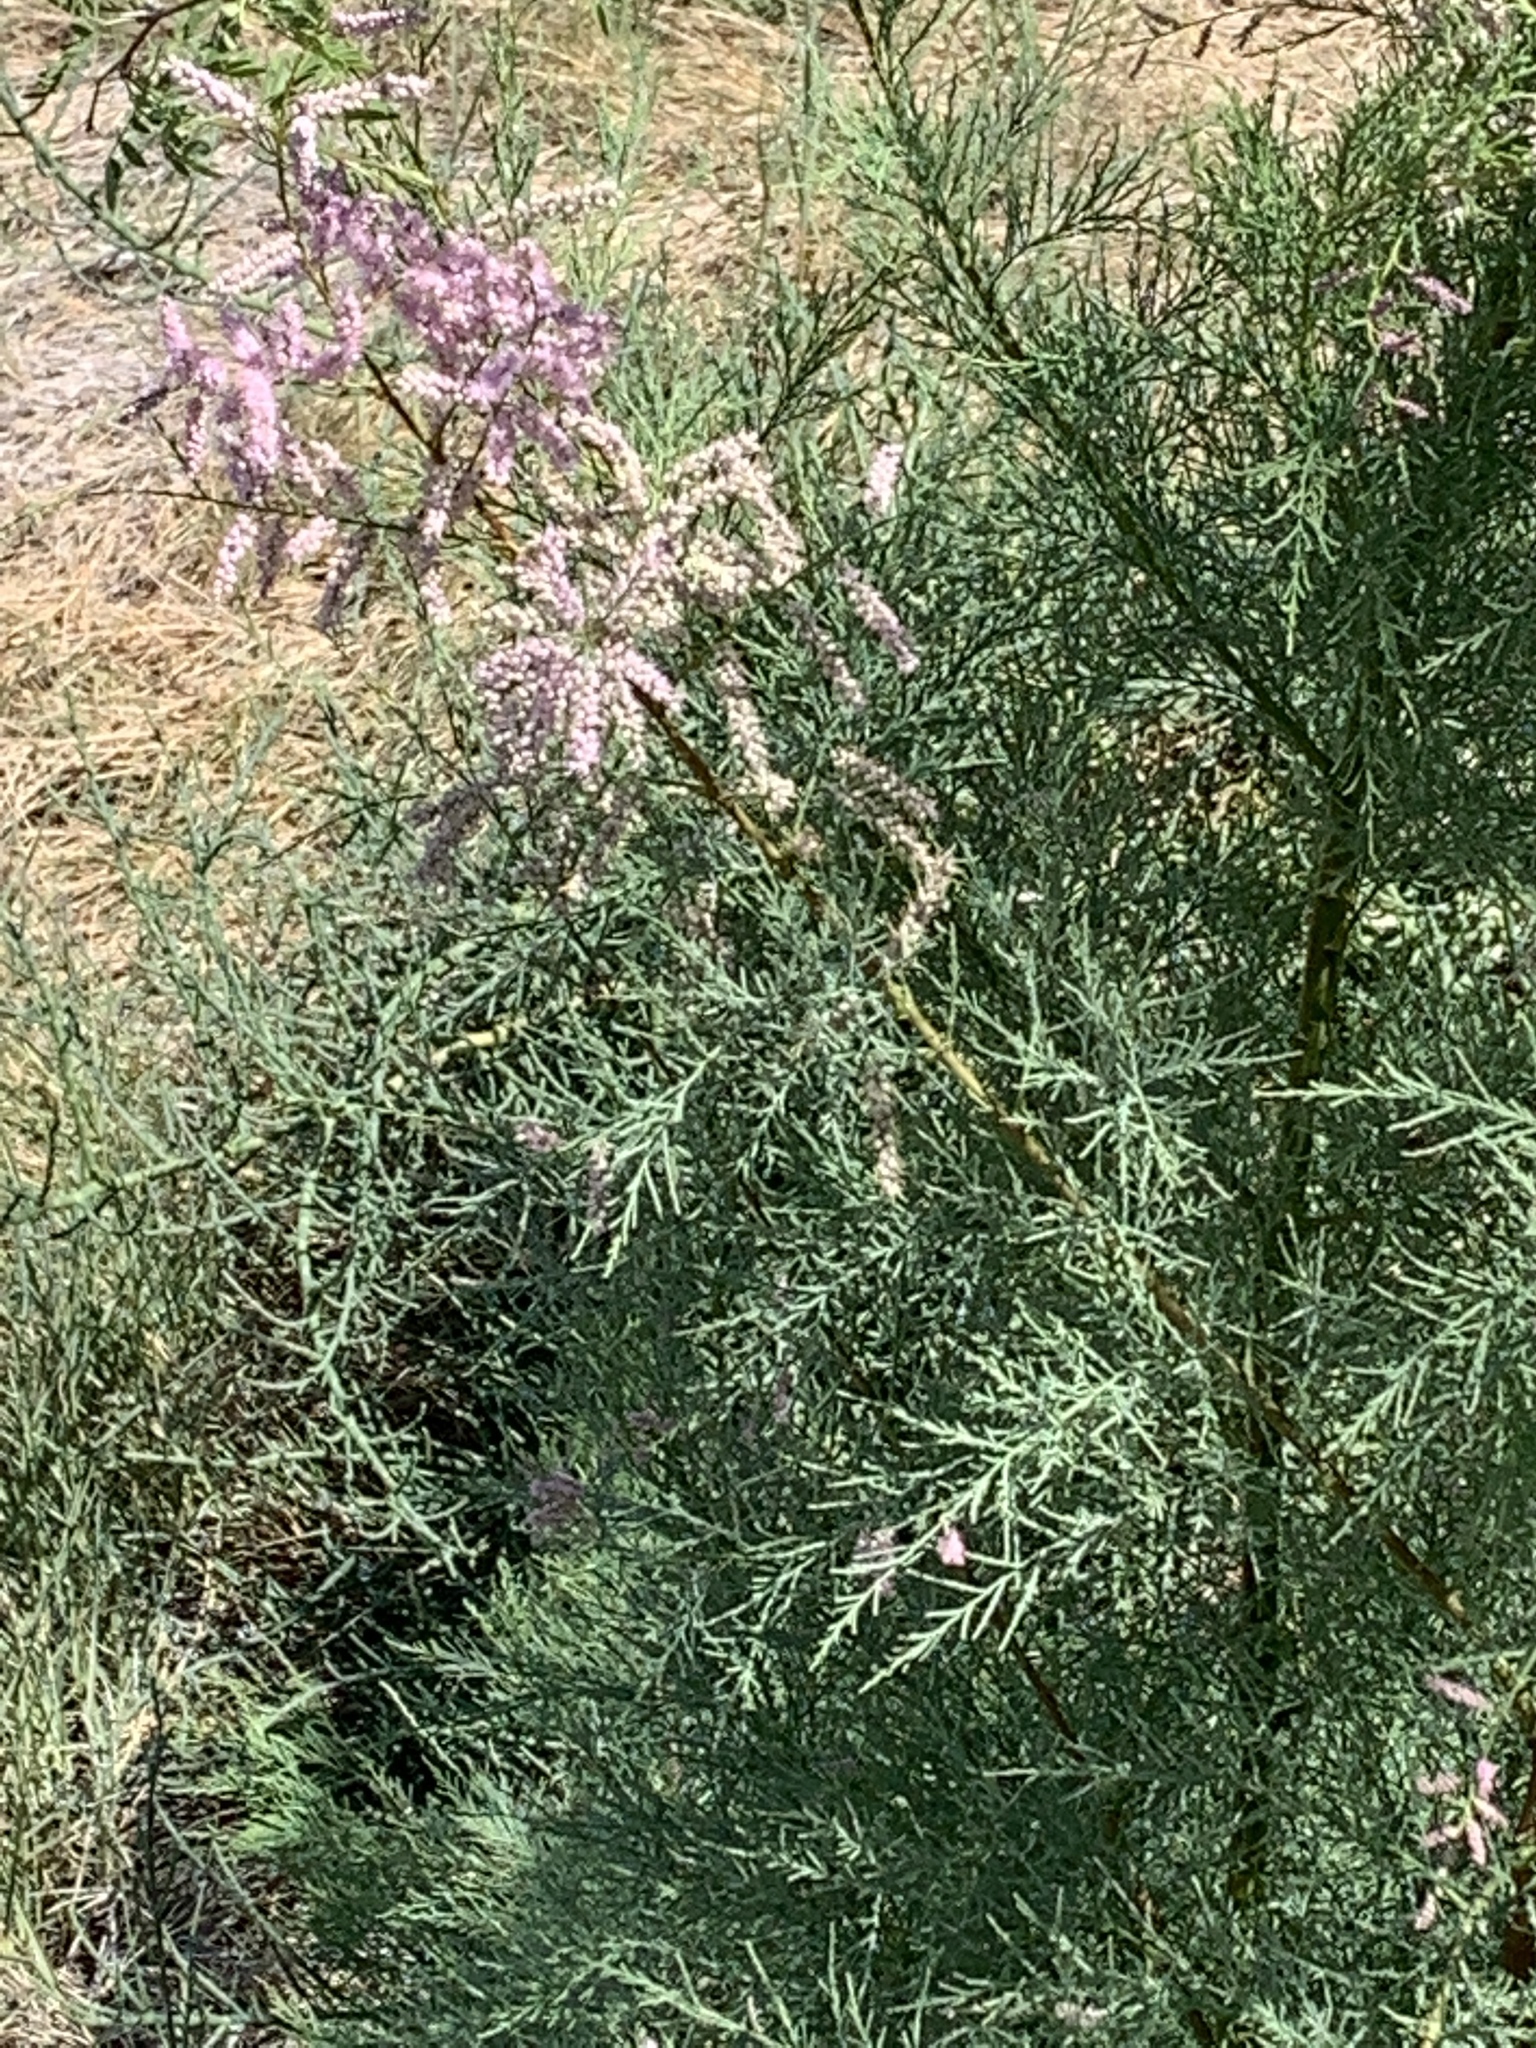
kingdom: Plantae
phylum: Tracheophyta
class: Magnoliopsida
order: Caryophyllales
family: Tamaricaceae
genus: Tamarix
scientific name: Tamarix ramosissima
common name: Pink tamarisk
